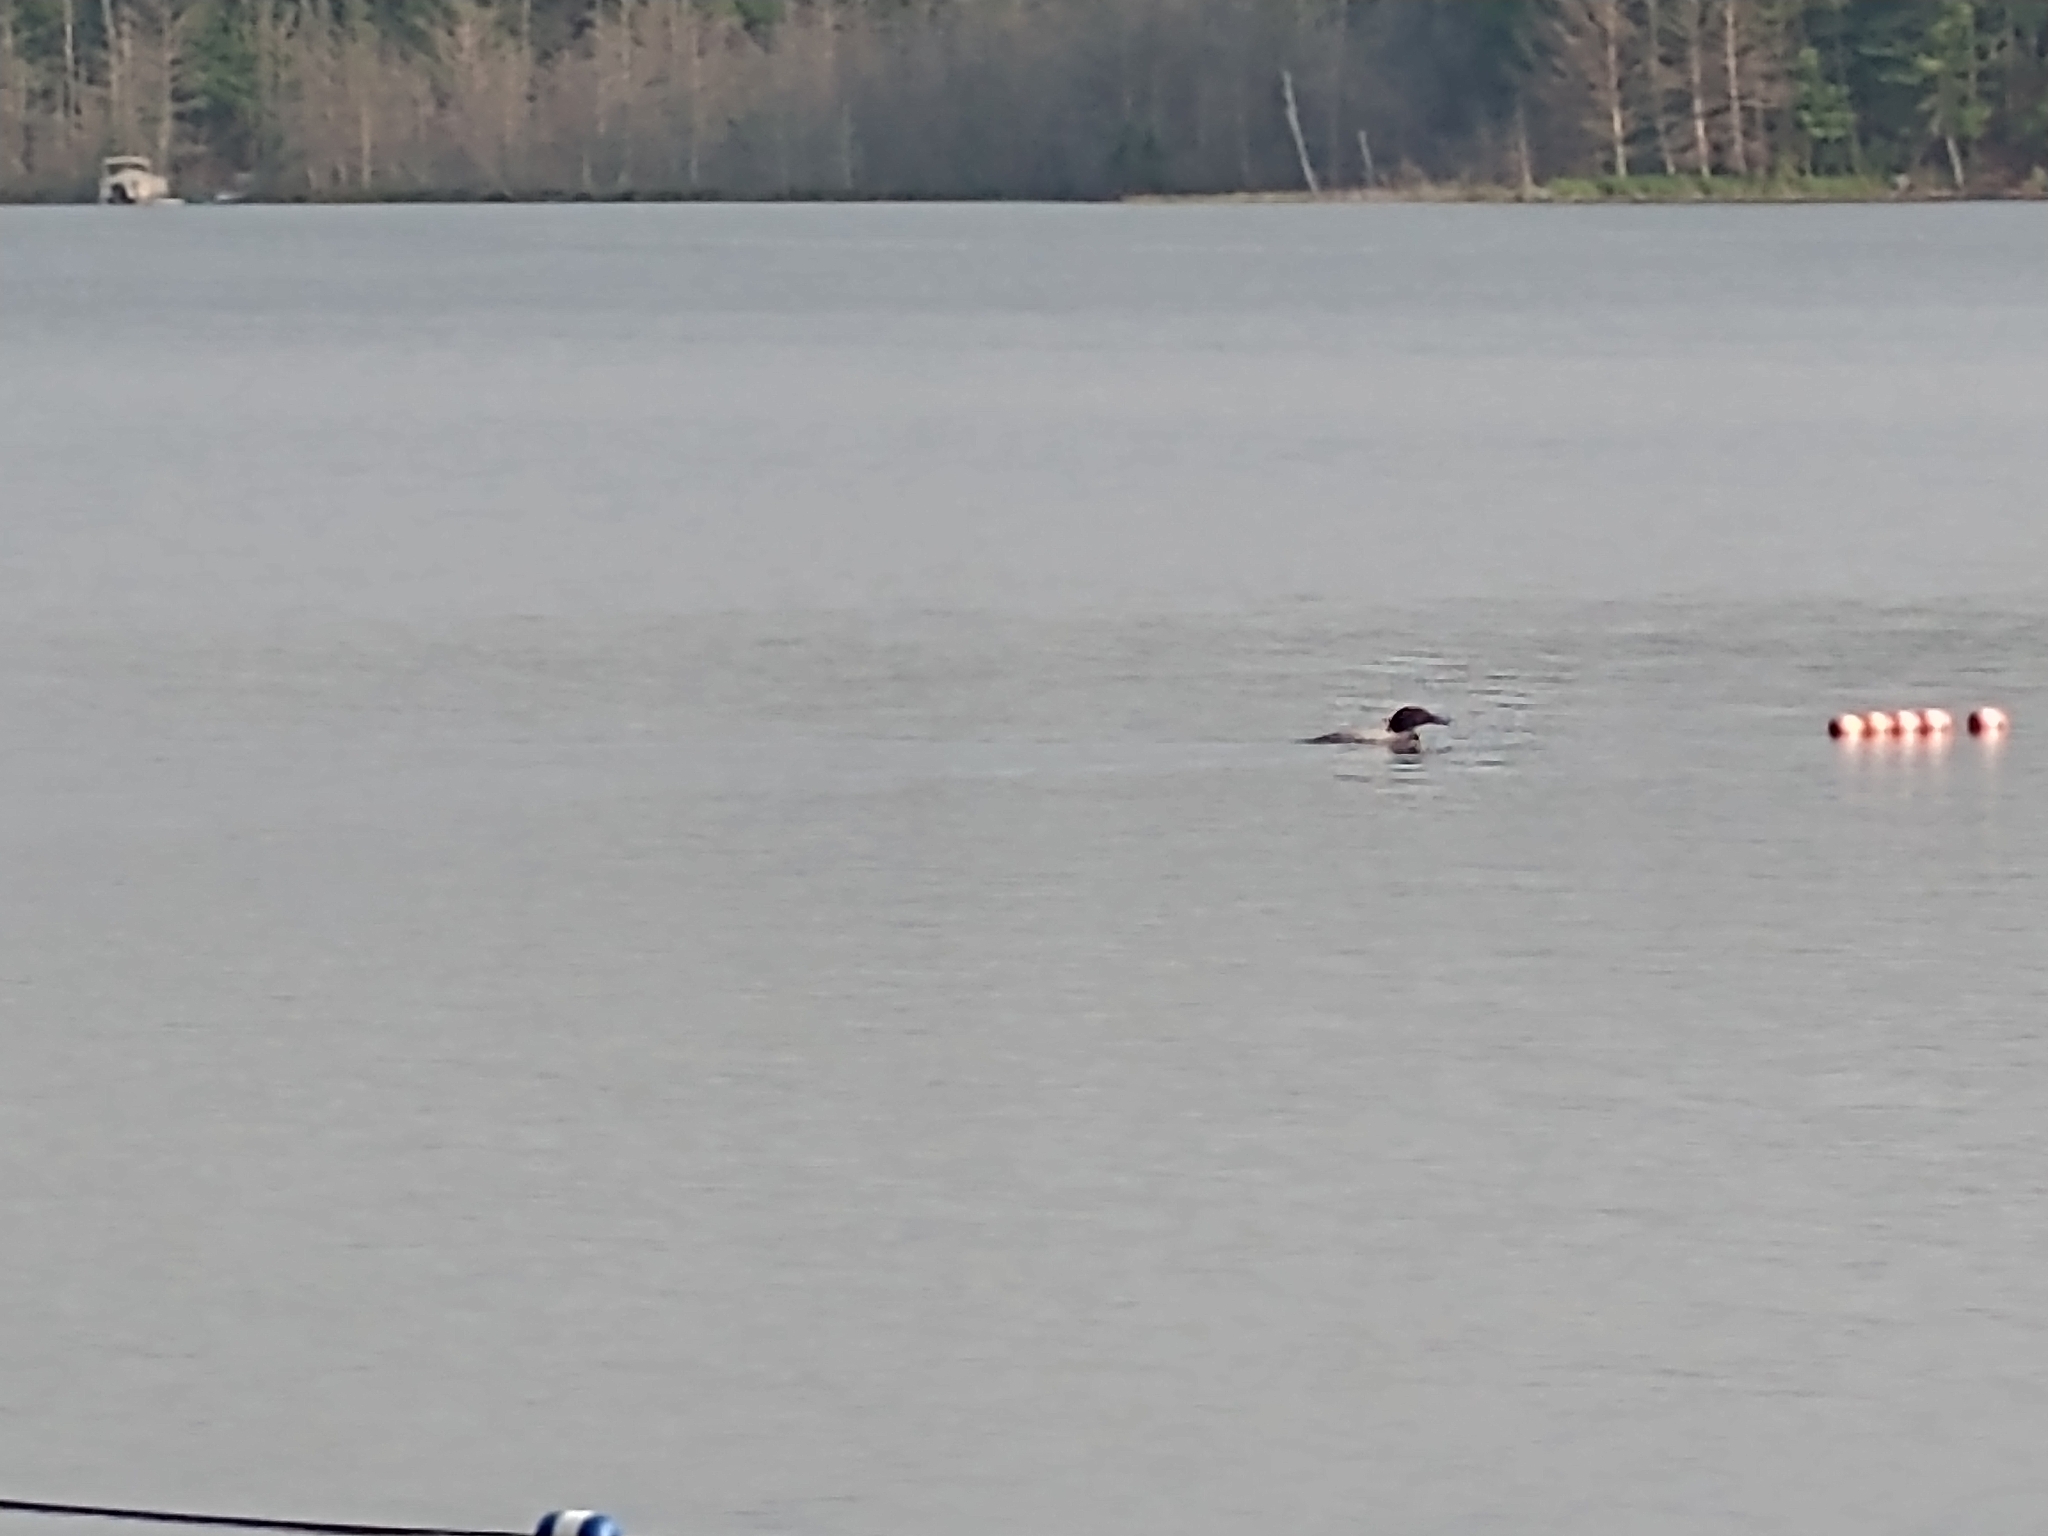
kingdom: Animalia
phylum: Chordata
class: Aves
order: Gaviiformes
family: Gaviidae
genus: Gavia
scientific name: Gavia immer
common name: Common loon
